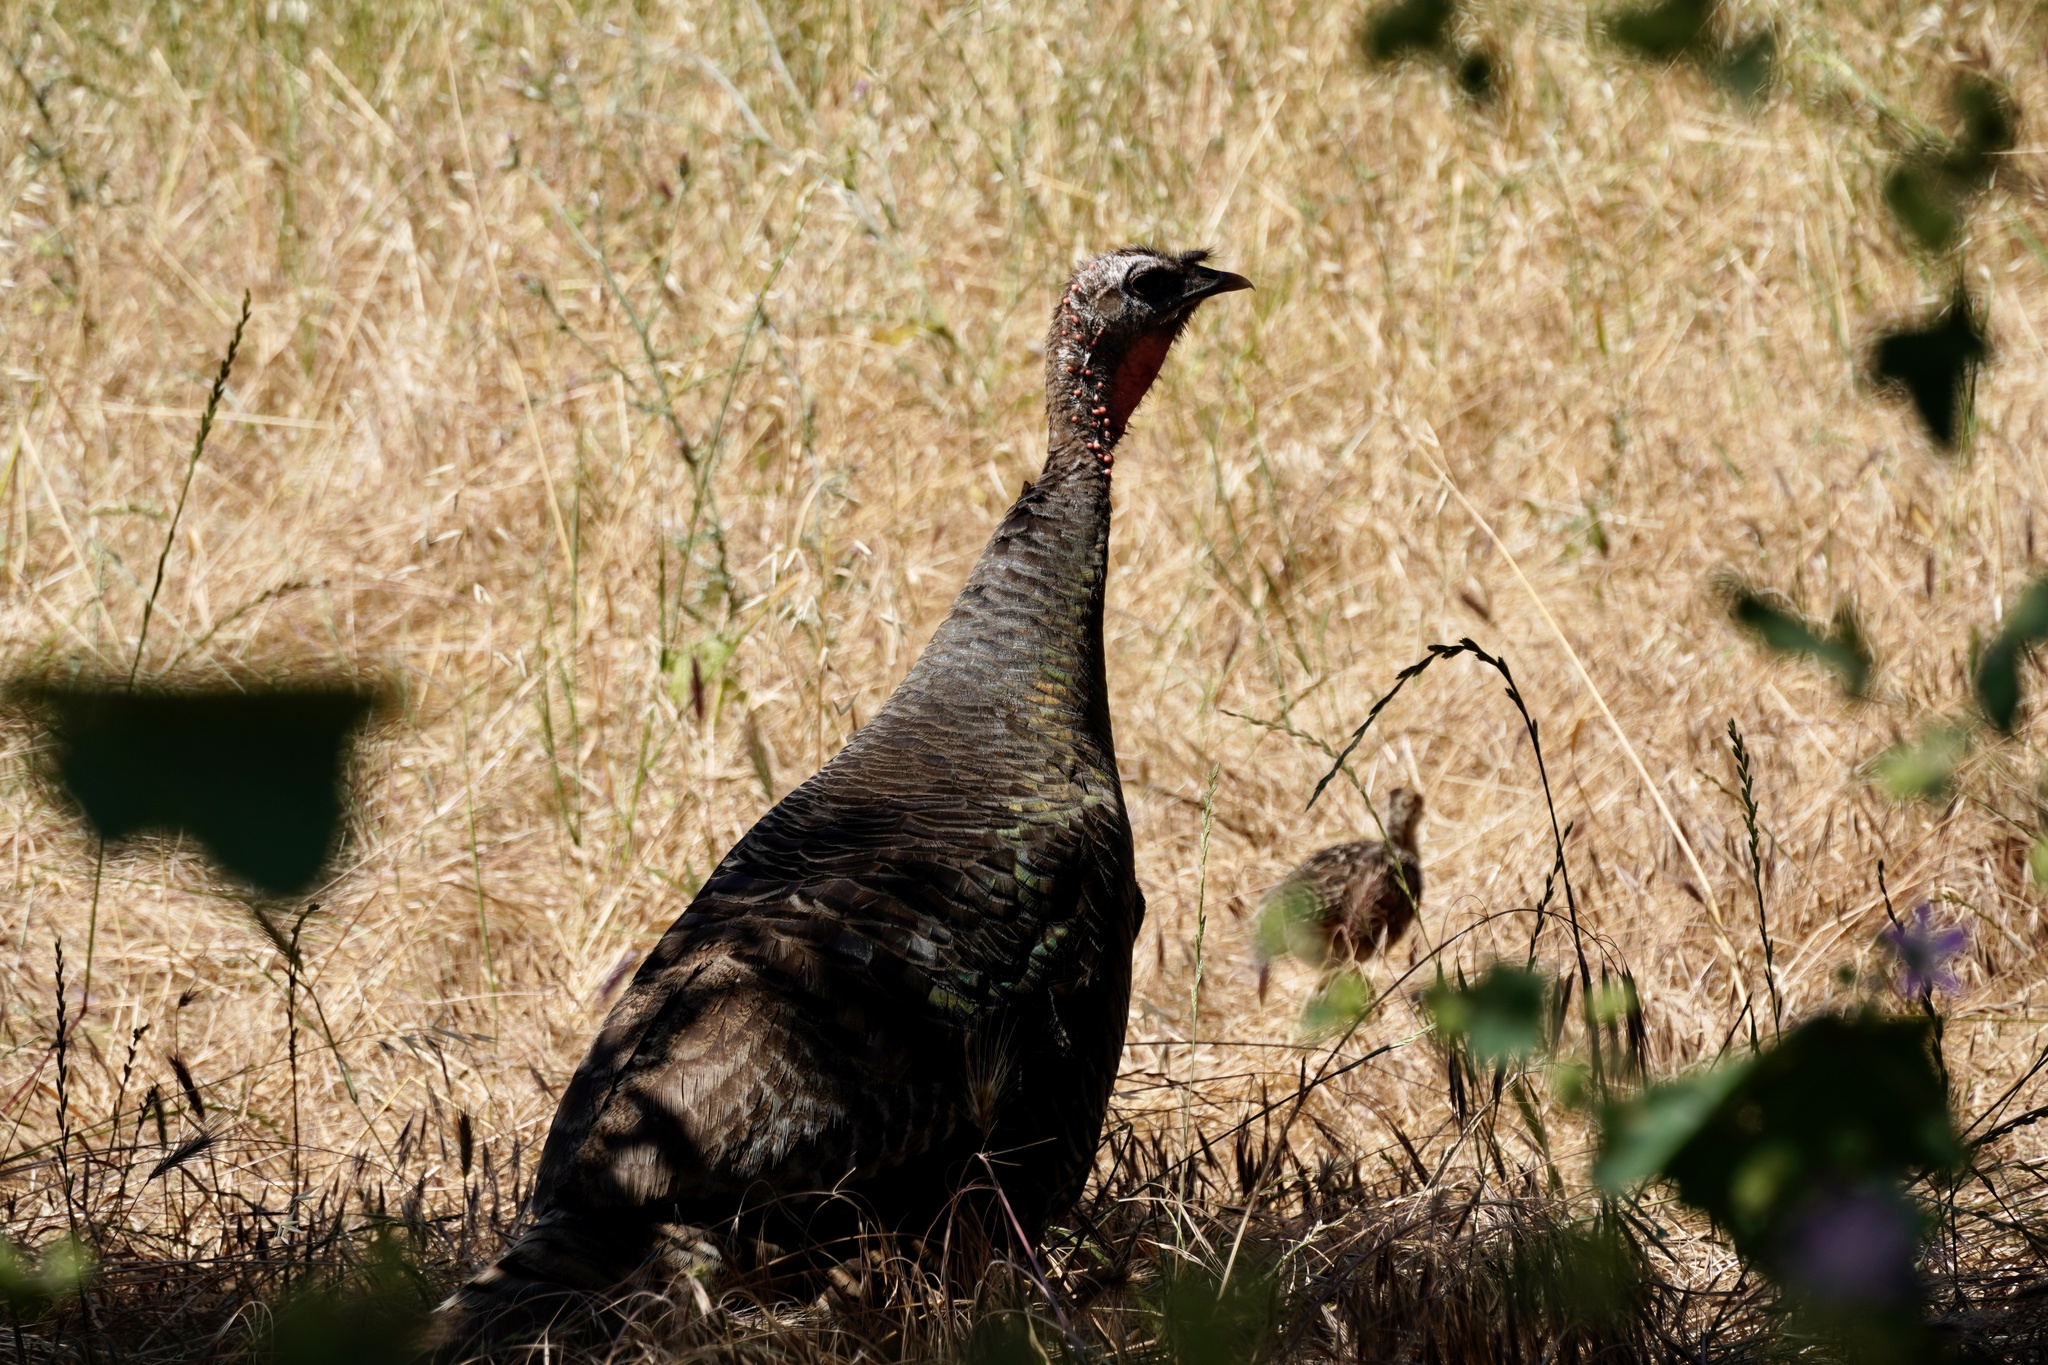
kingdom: Animalia
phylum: Chordata
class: Aves
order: Galliformes
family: Phasianidae
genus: Meleagris
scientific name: Meleagris gallopavo
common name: Wild turkey
